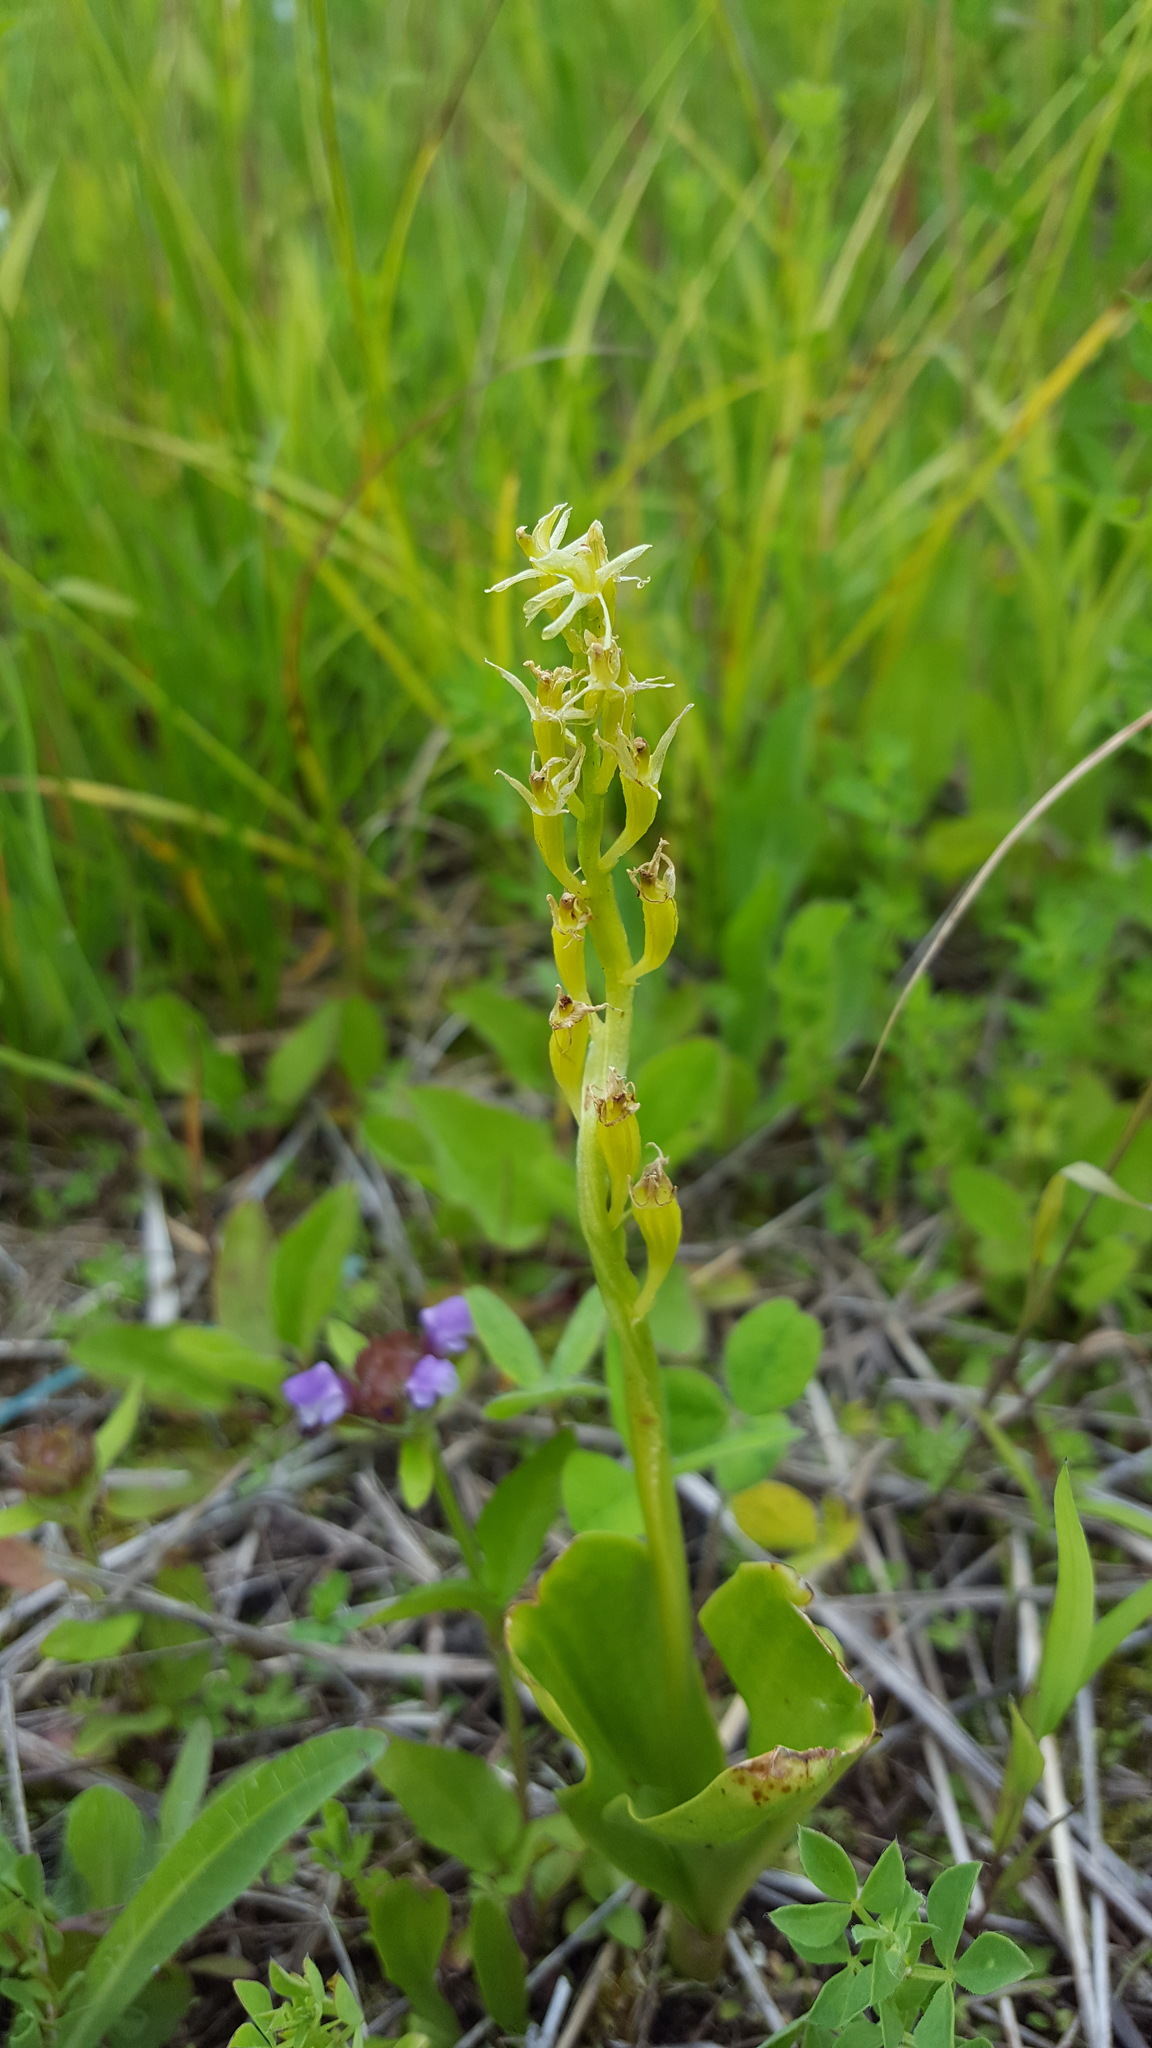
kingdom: Animalia
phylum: Arthropoda
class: Insecta
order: Coleoptera
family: Curculionidae
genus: Liparis
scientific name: Liparis loeselii
